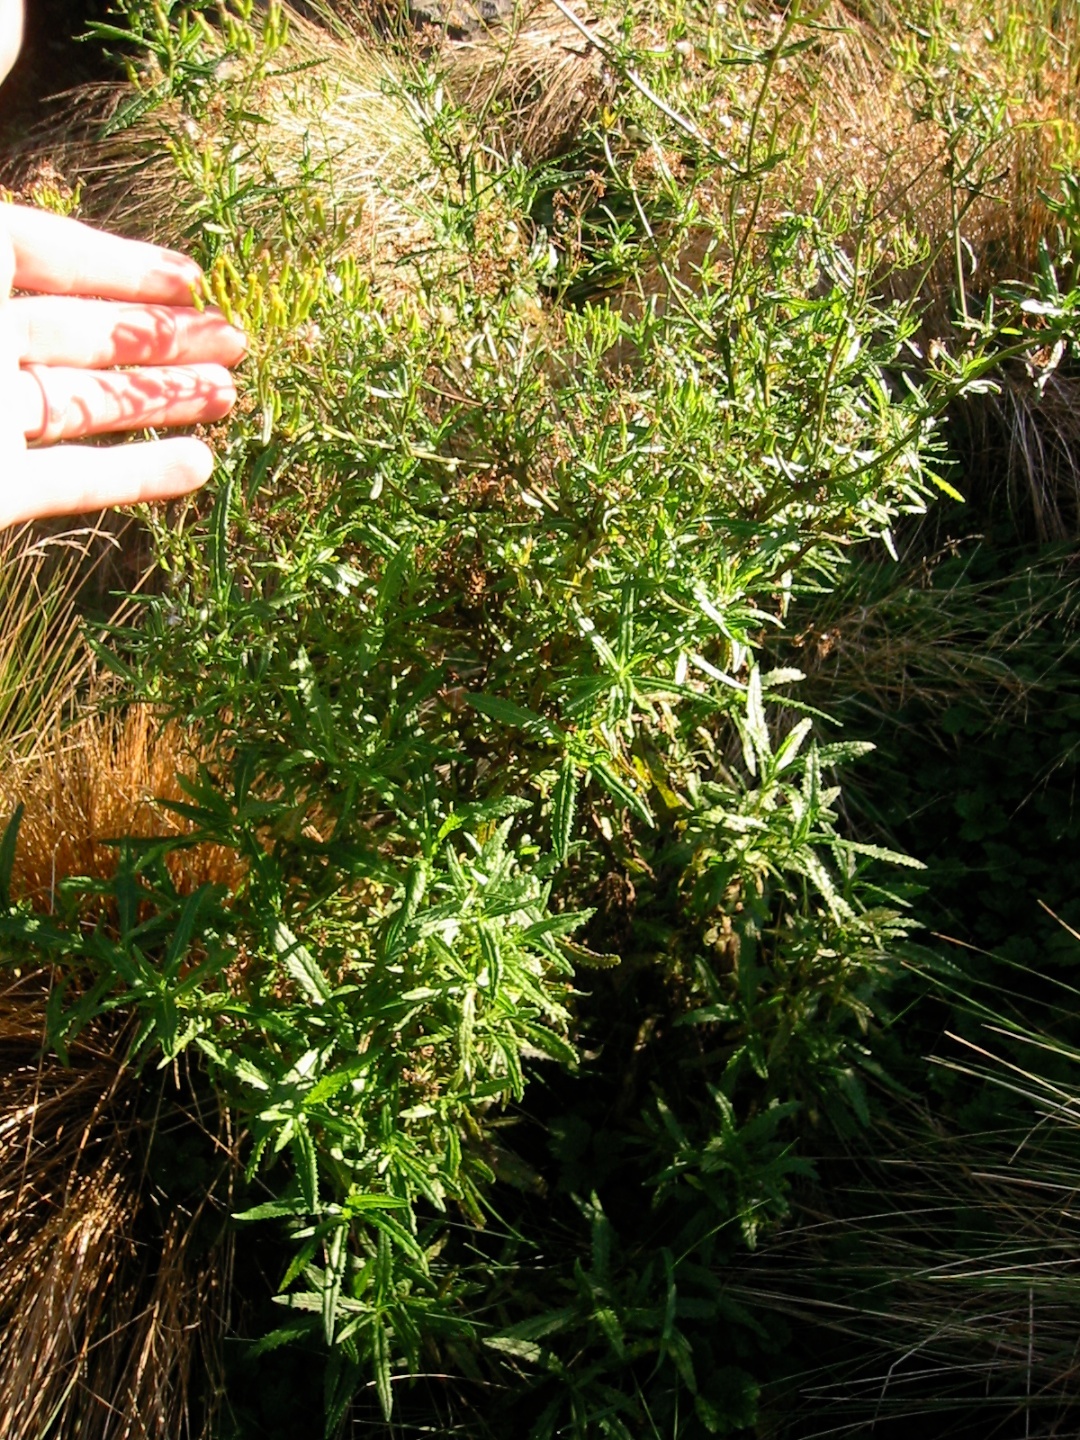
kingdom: Plantae
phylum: Tracheophyta
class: Magnoliopsida
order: Asterales
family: Asteraceae
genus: Senecio
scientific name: Senecio minimus
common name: Toothed fireweed
